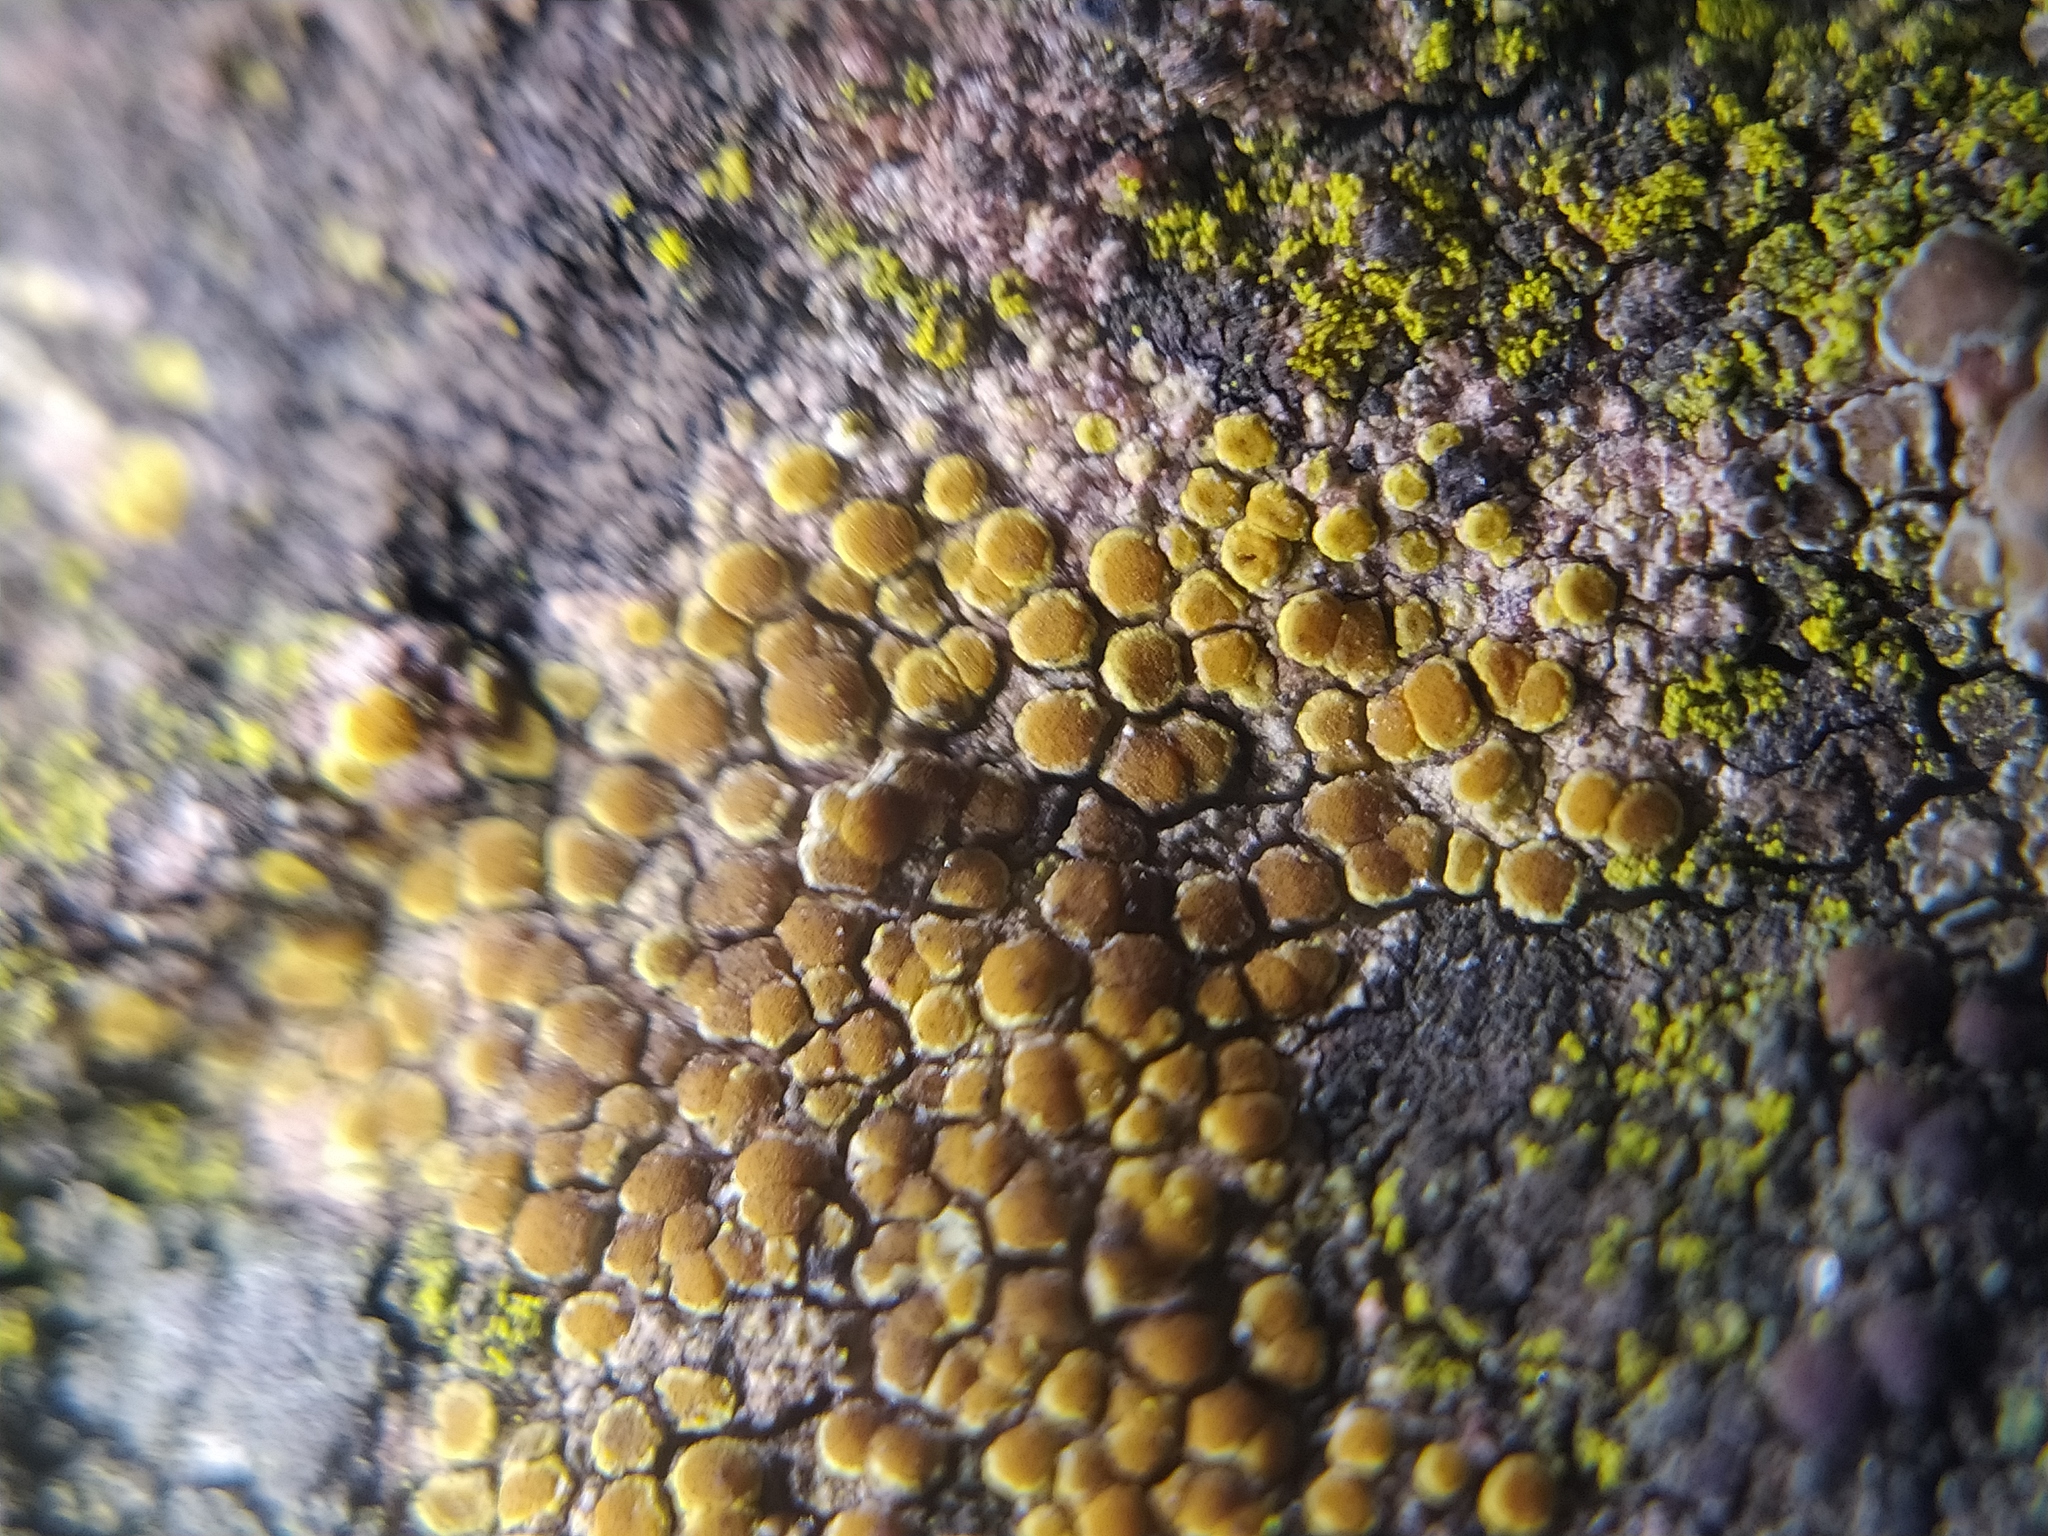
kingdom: Fungi
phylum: Ascomycota
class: Candelariomycetes
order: Candelariales
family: Candelariaceae
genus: Candelariella
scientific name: Candelariella aurella
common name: Hidden goldspeck lichen
